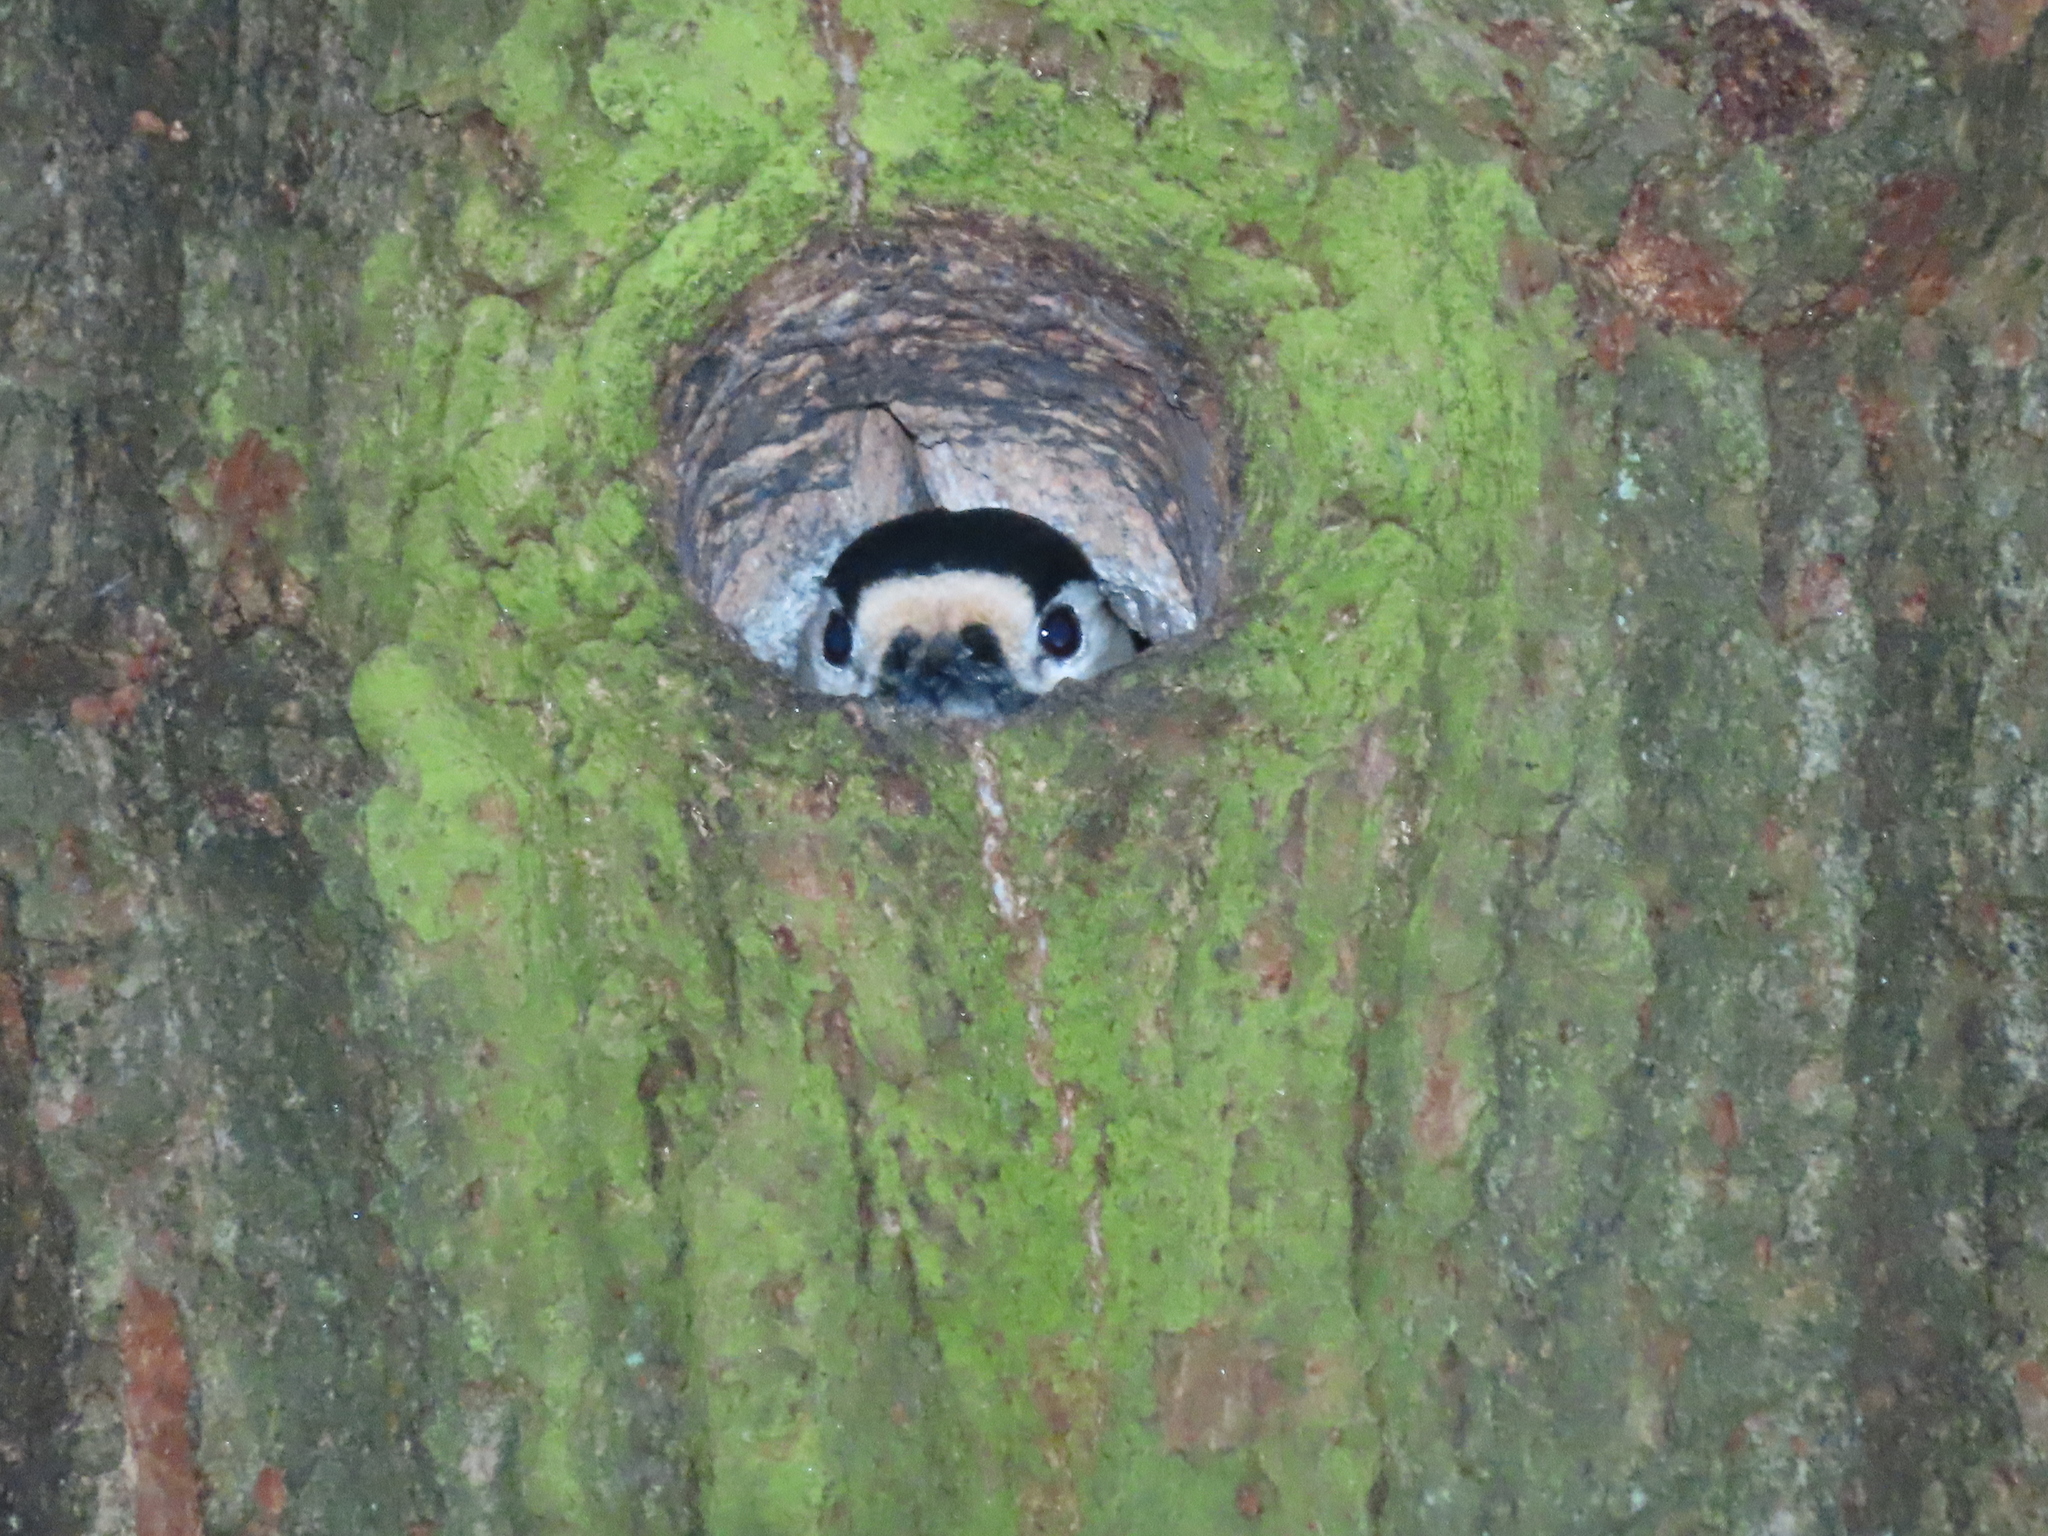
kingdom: Animalia
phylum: Chordata
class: Aves
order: Piciformes
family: Picidae
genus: Dendrocopos
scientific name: Dendrocopos major
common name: Great spotted woodpecker
